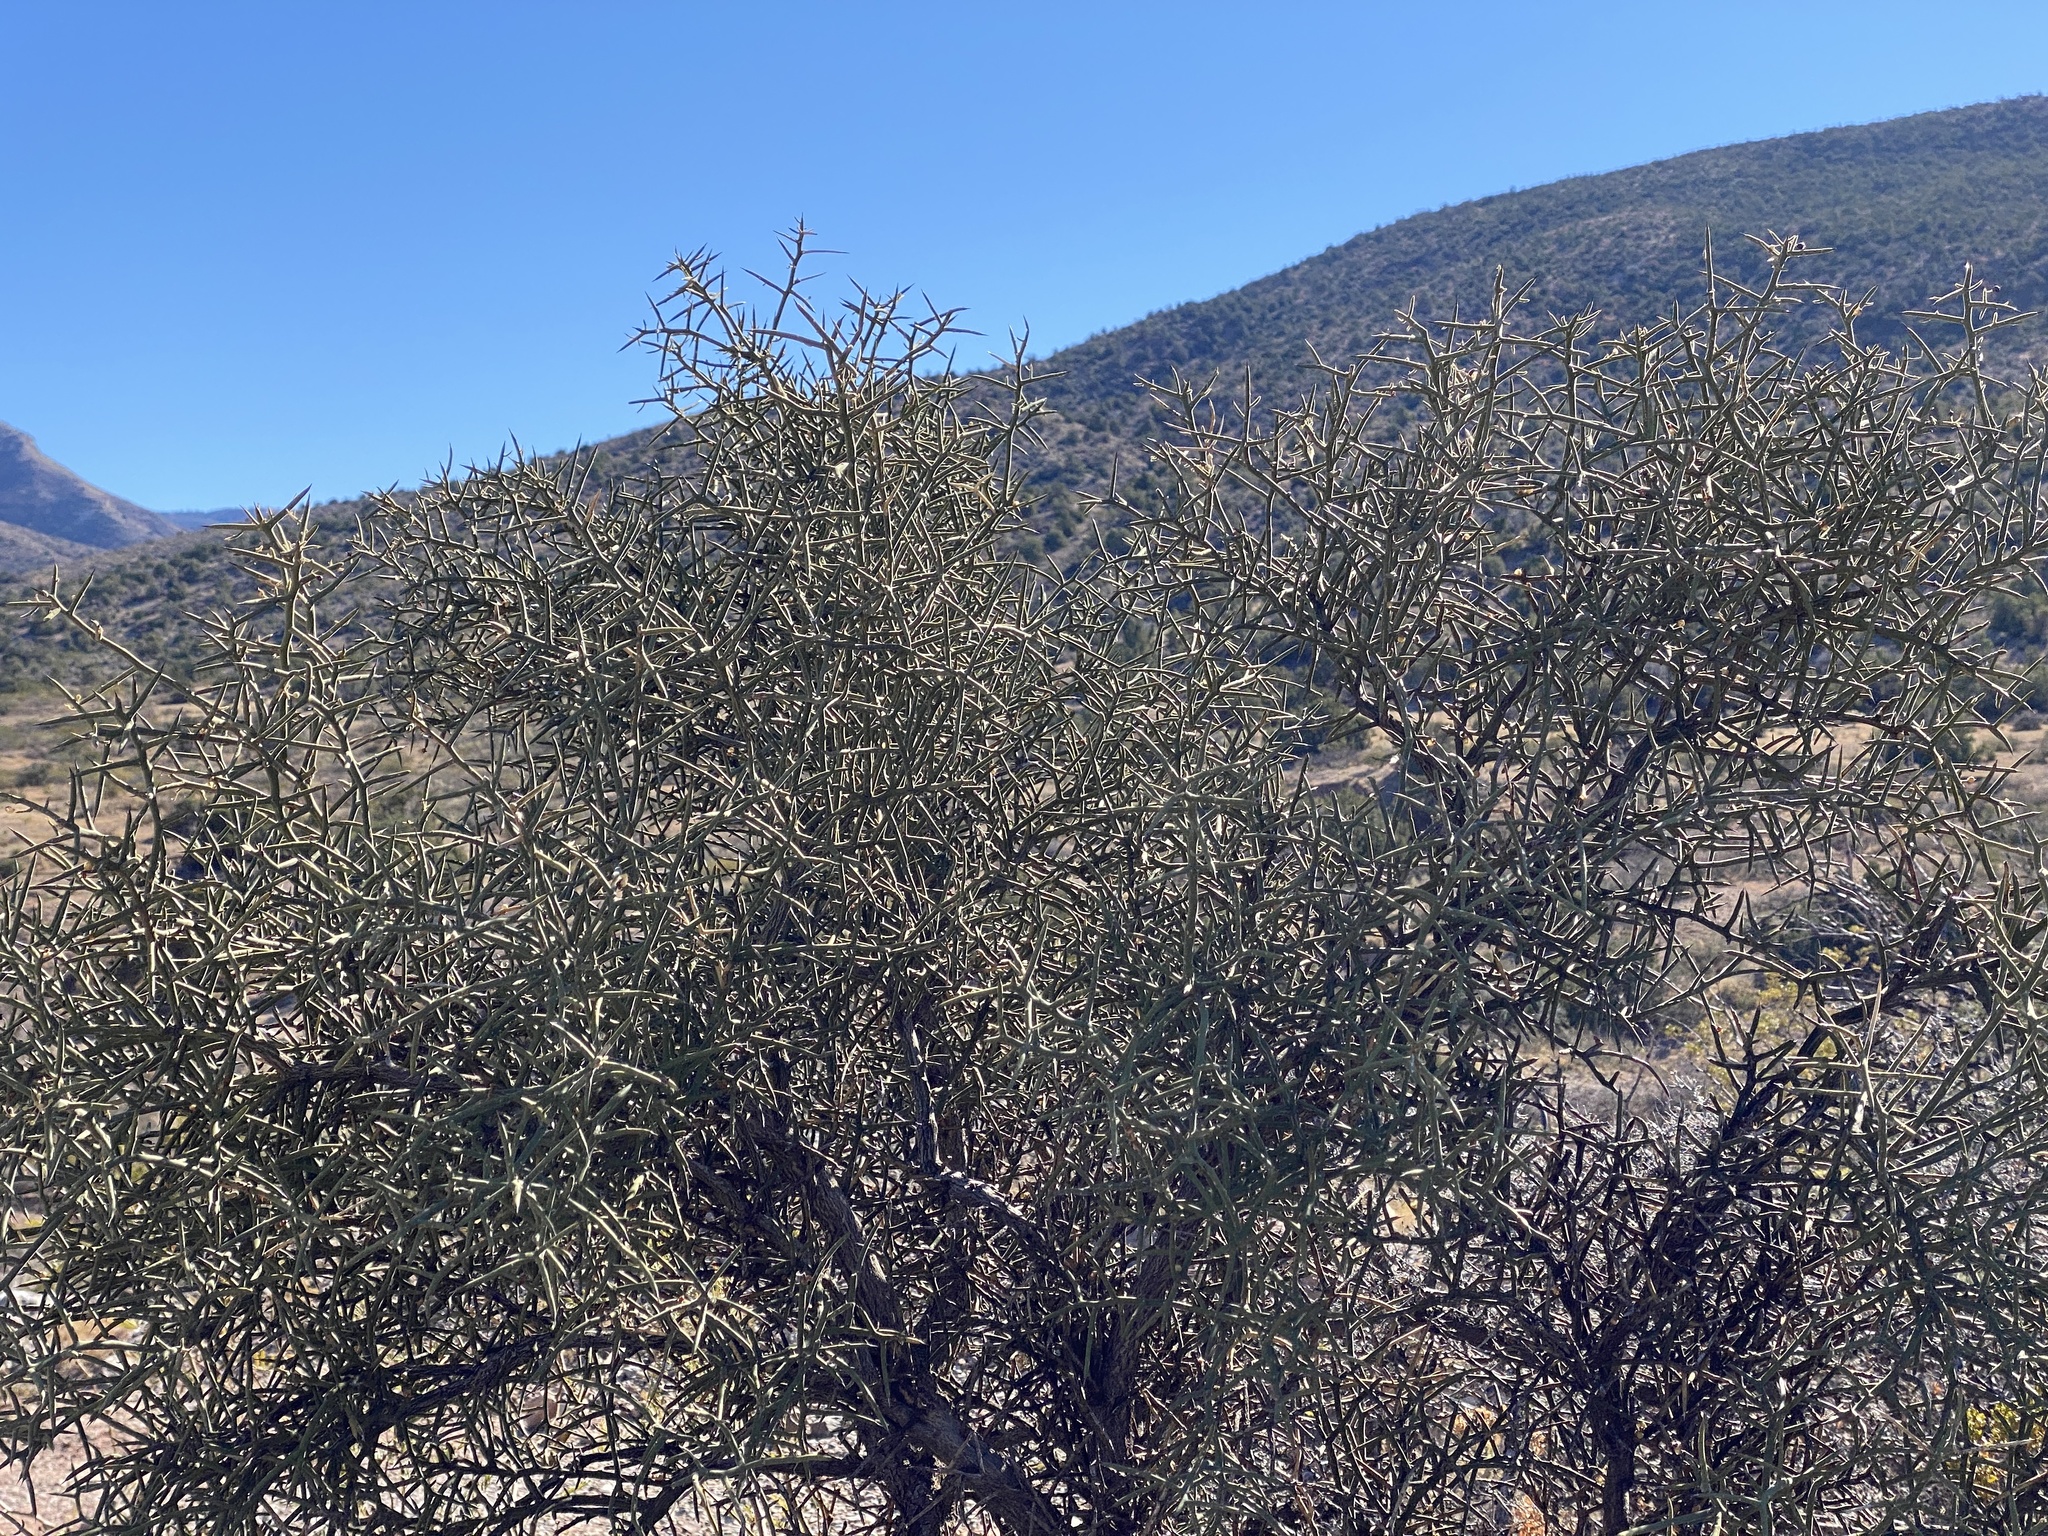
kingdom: Plantae
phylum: Tracheophyta
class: Magnoliopsida
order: Brassicales
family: Koeberliniaceae
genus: Koeberlinia
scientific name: Koeberlinia spinosa
